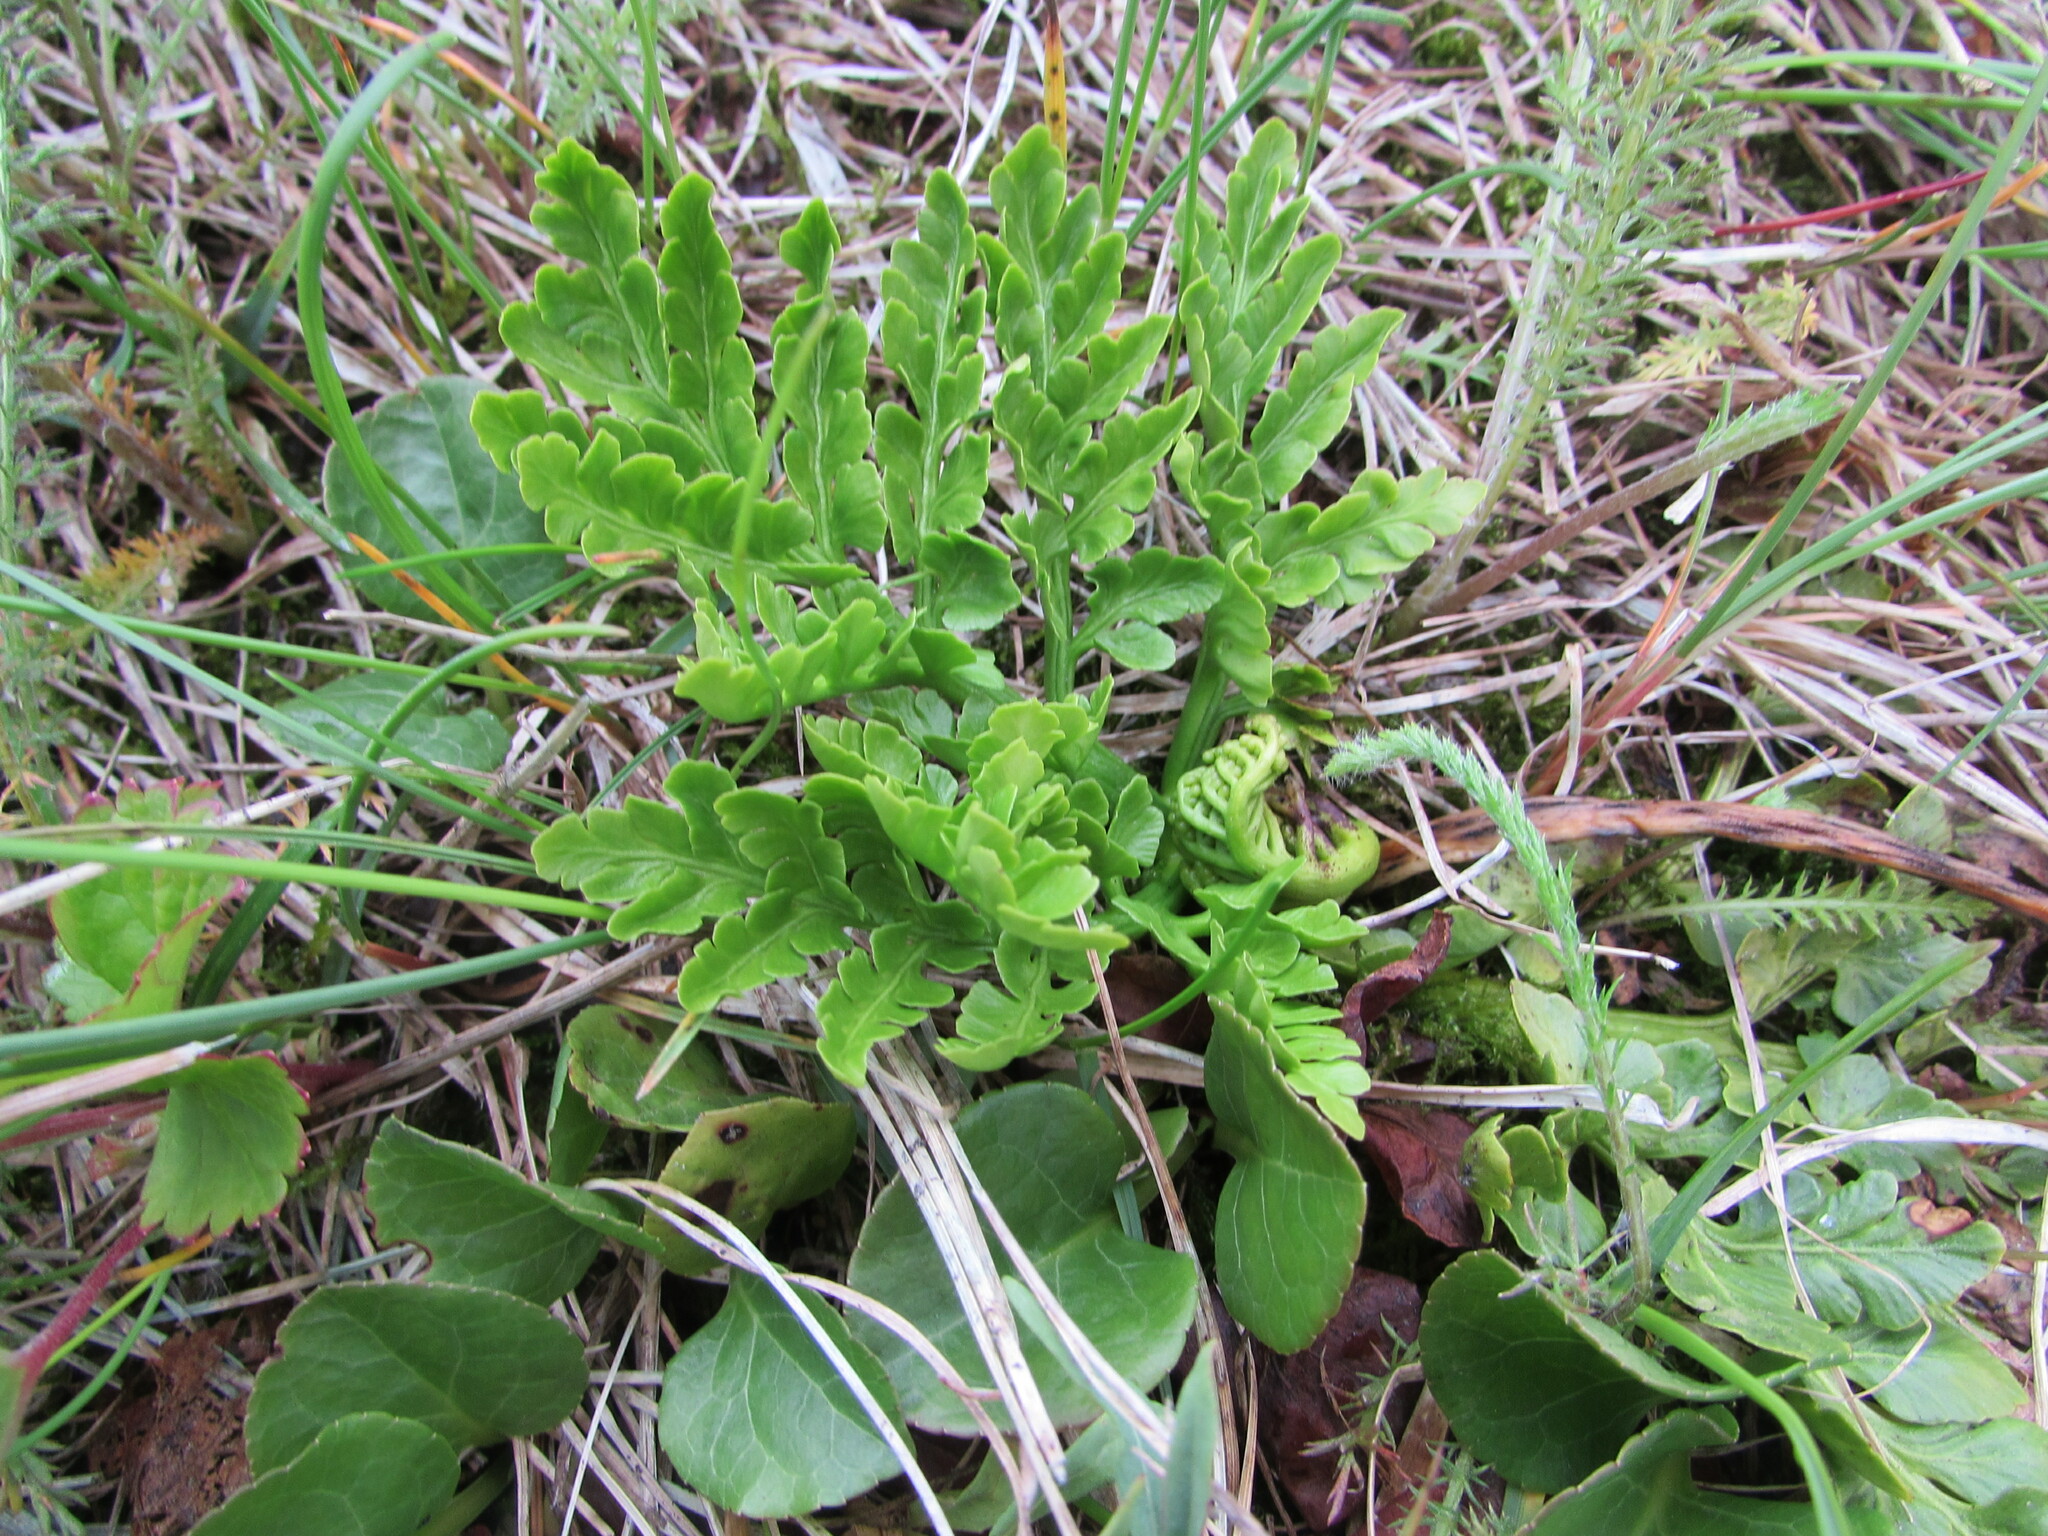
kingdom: Plantae
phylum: Tracheophyta
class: Polypodiopsida
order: Ophioglossales
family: Ophioglossaceae
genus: Sceptridium
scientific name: Sceptridium multifidum
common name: Leathery grape fern
